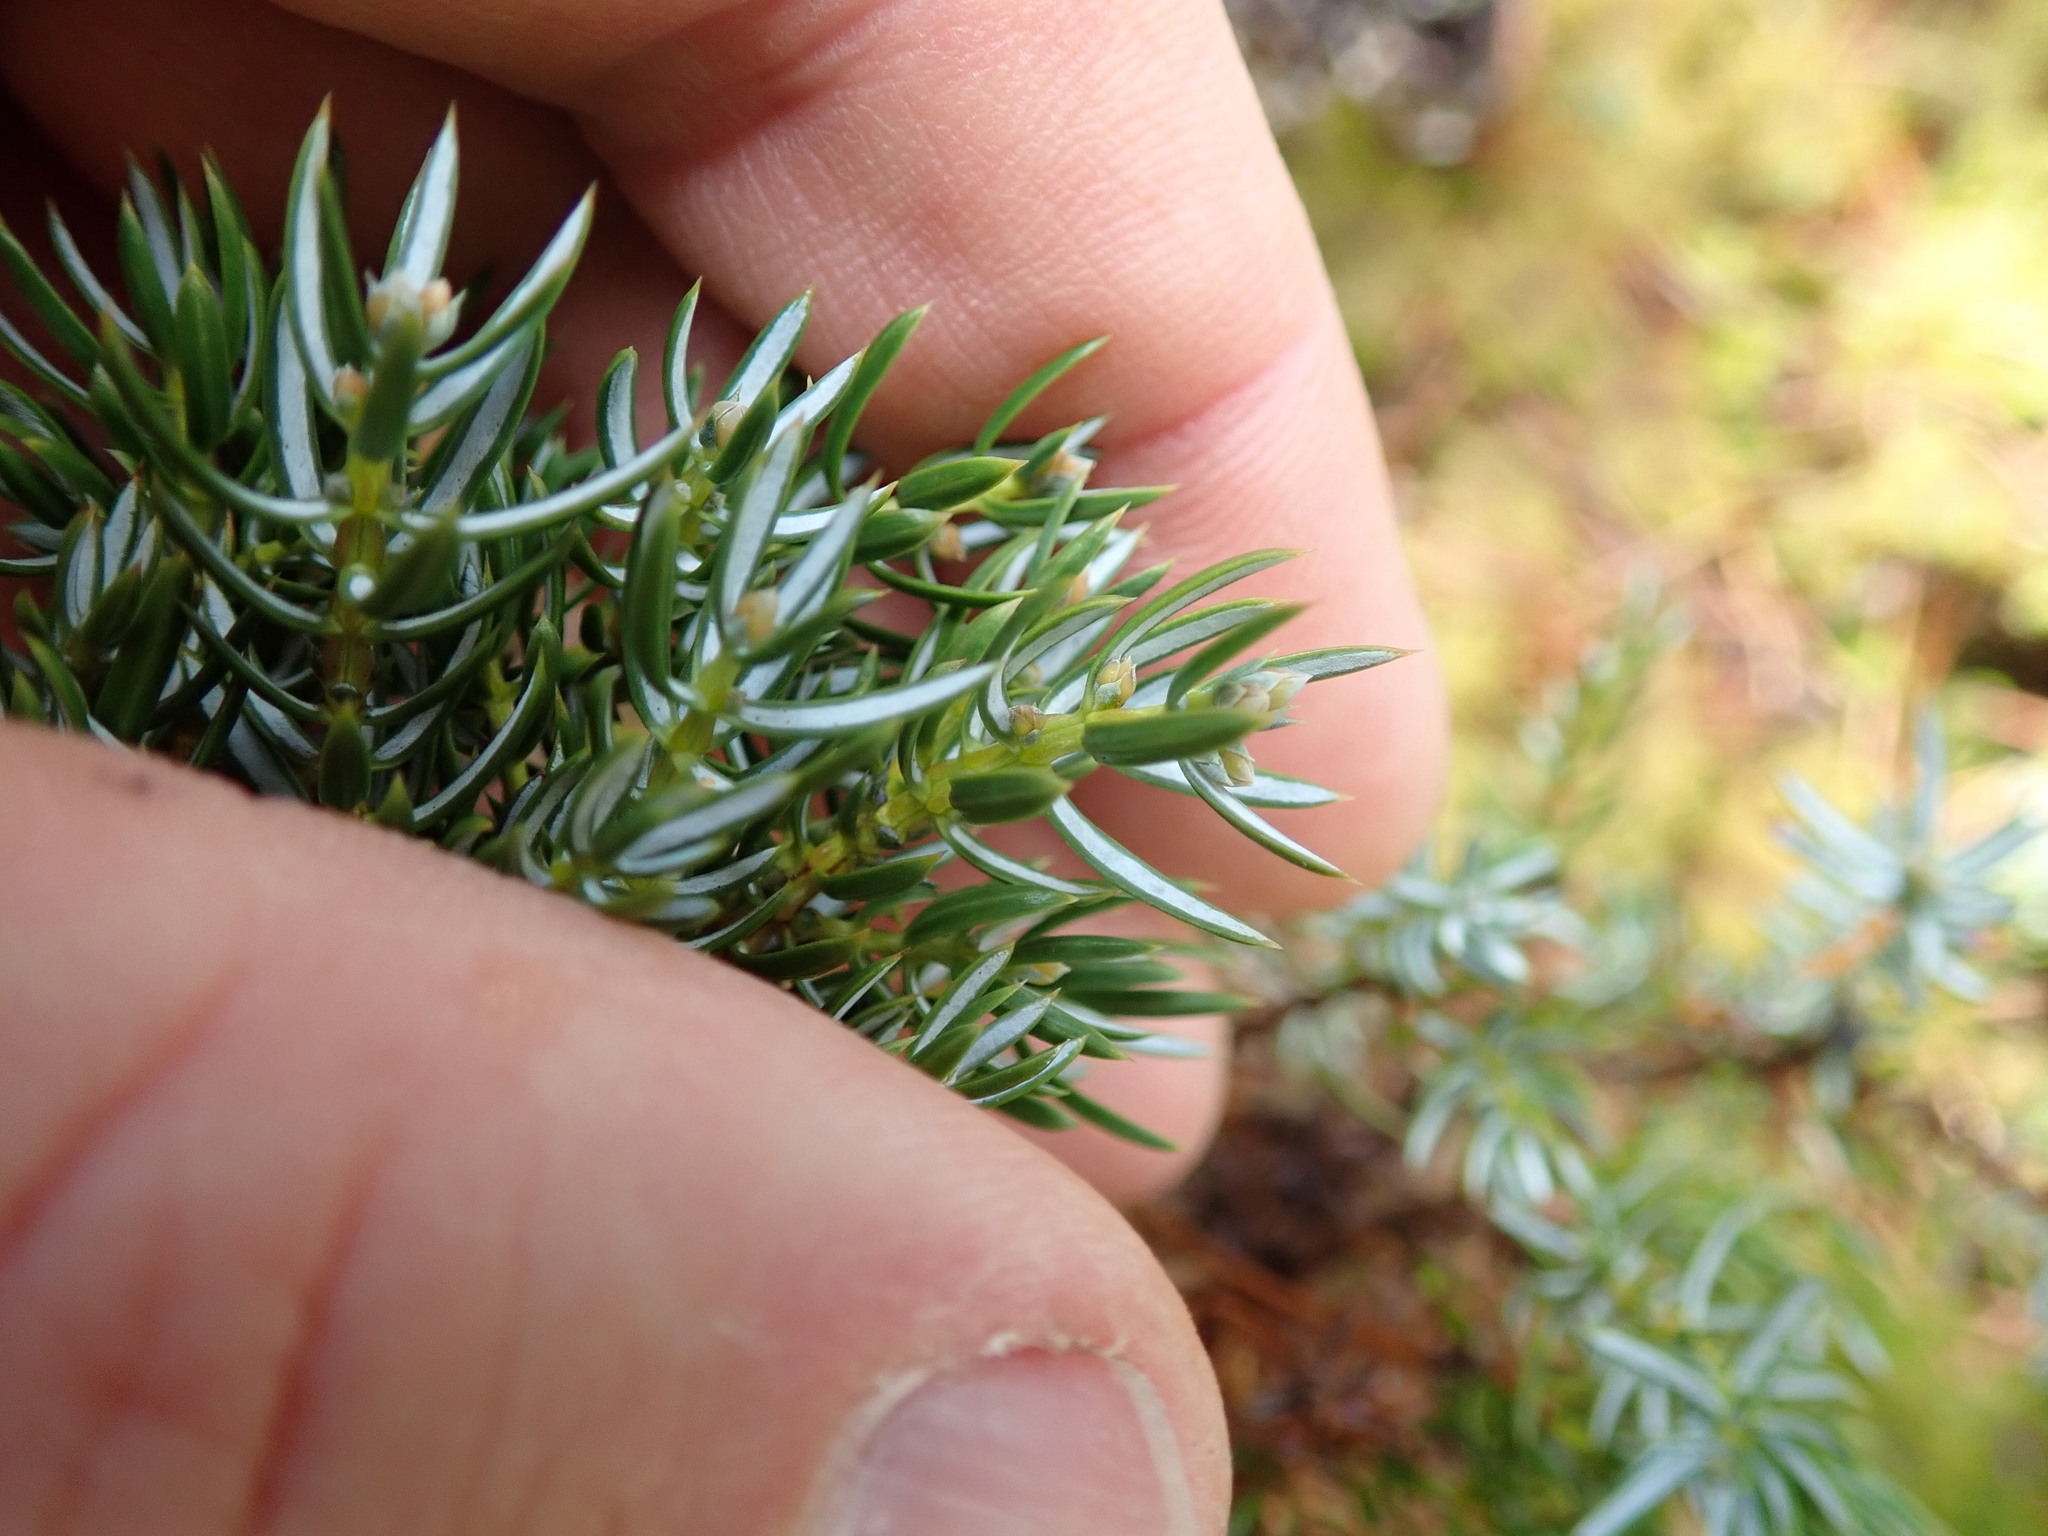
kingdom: Plantae
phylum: Tracheophyta
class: Pinopsida
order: Pinales
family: Cupressaceae
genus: Juniperus
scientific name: Juniperus communis
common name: Common juniper
